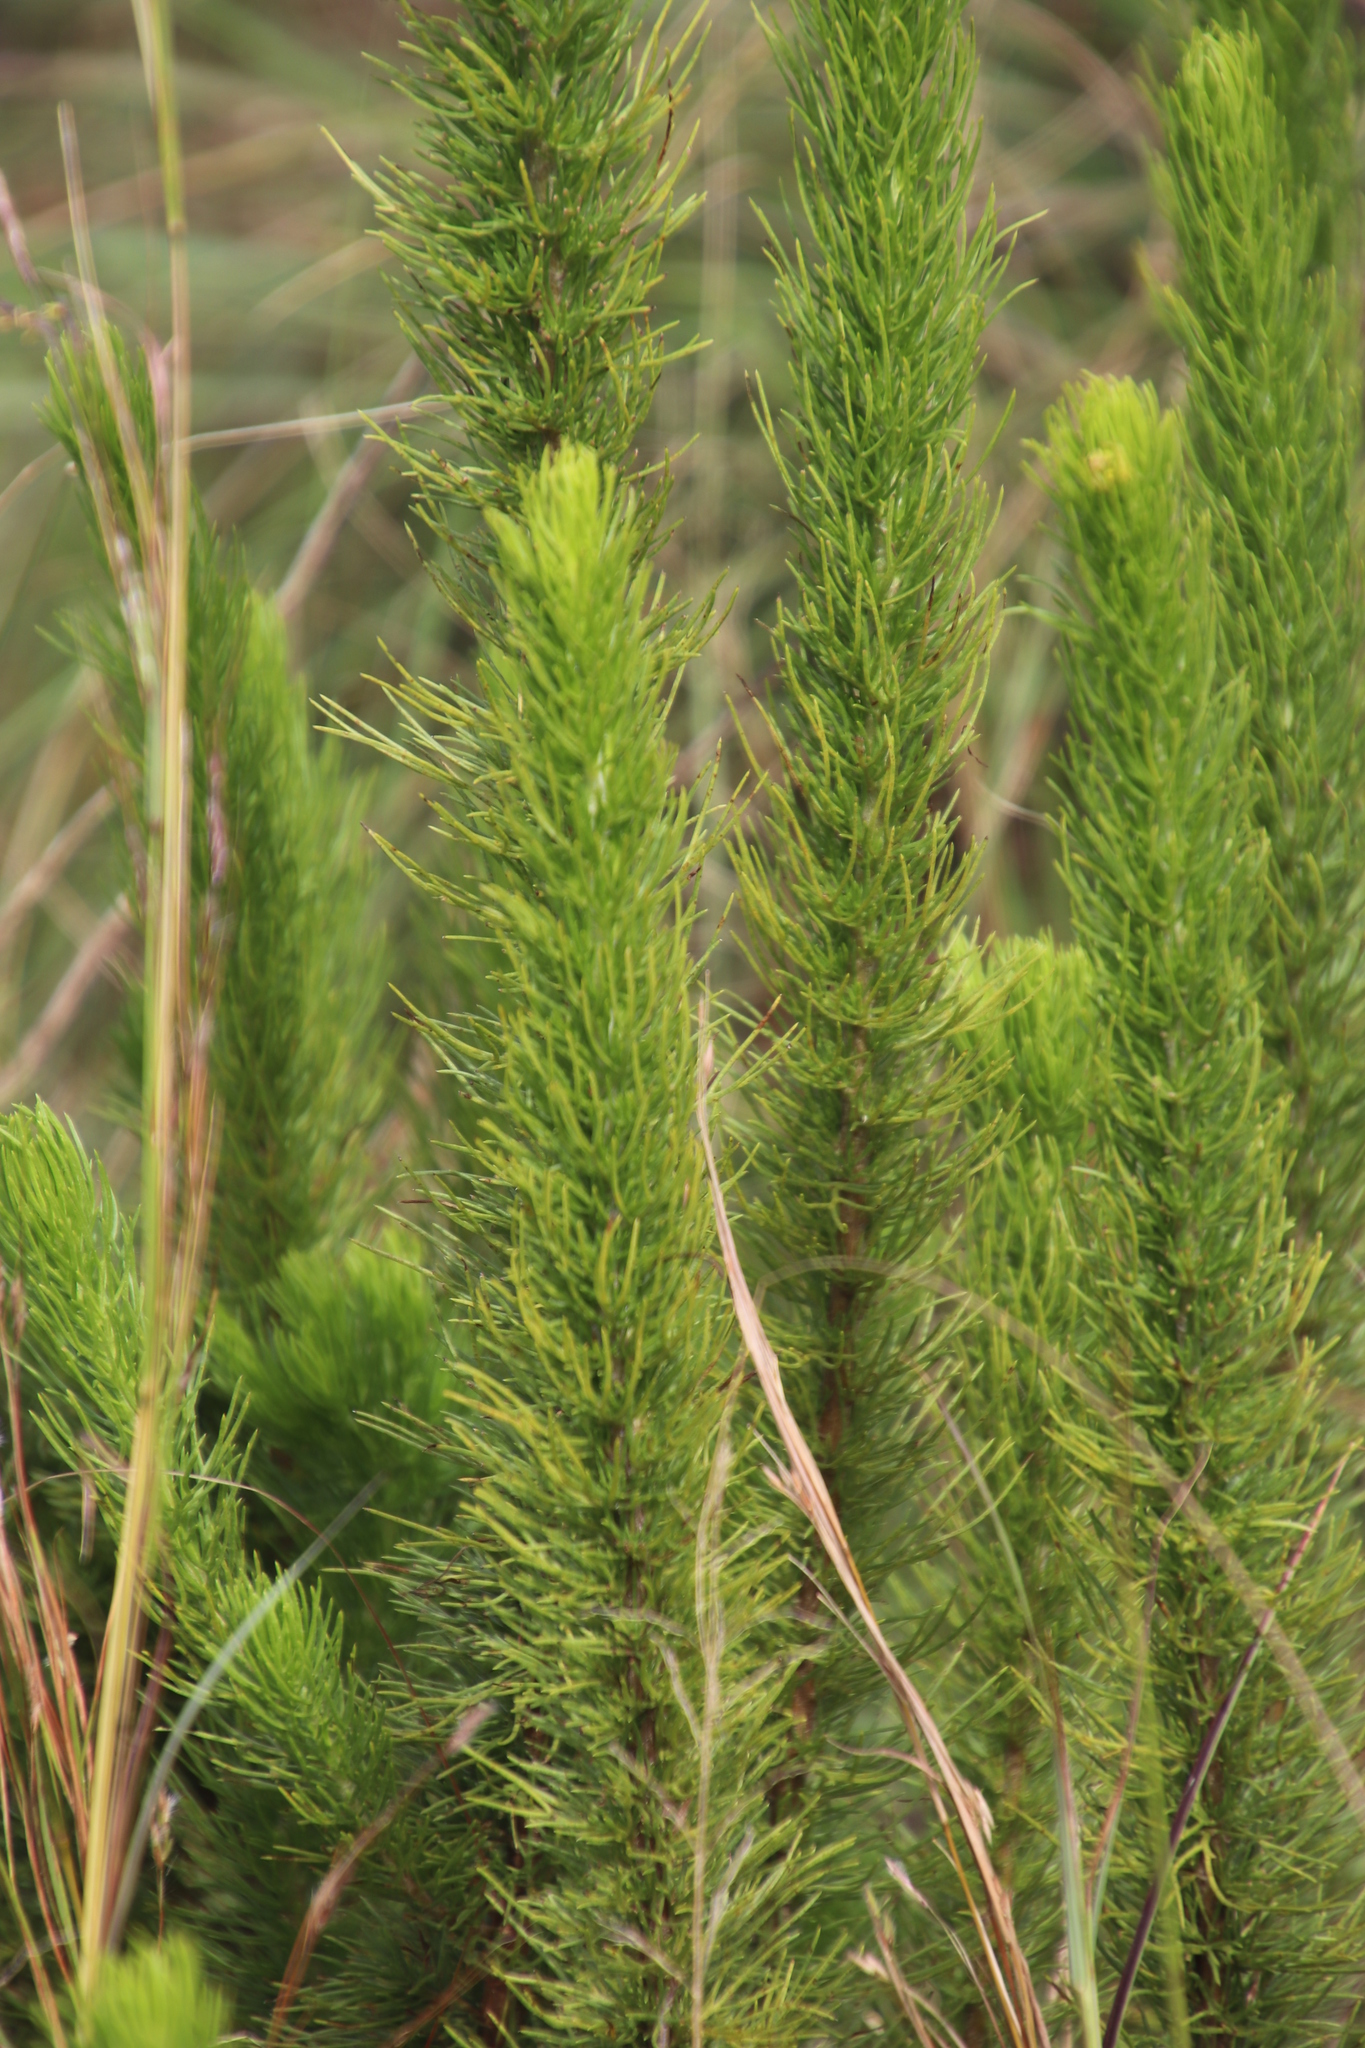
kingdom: Plantae
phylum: Tracheophyta
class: Magnoliopsida
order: Asterales
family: Asteraceae
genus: Phymaspermum
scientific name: Phymaspermum acerosum
